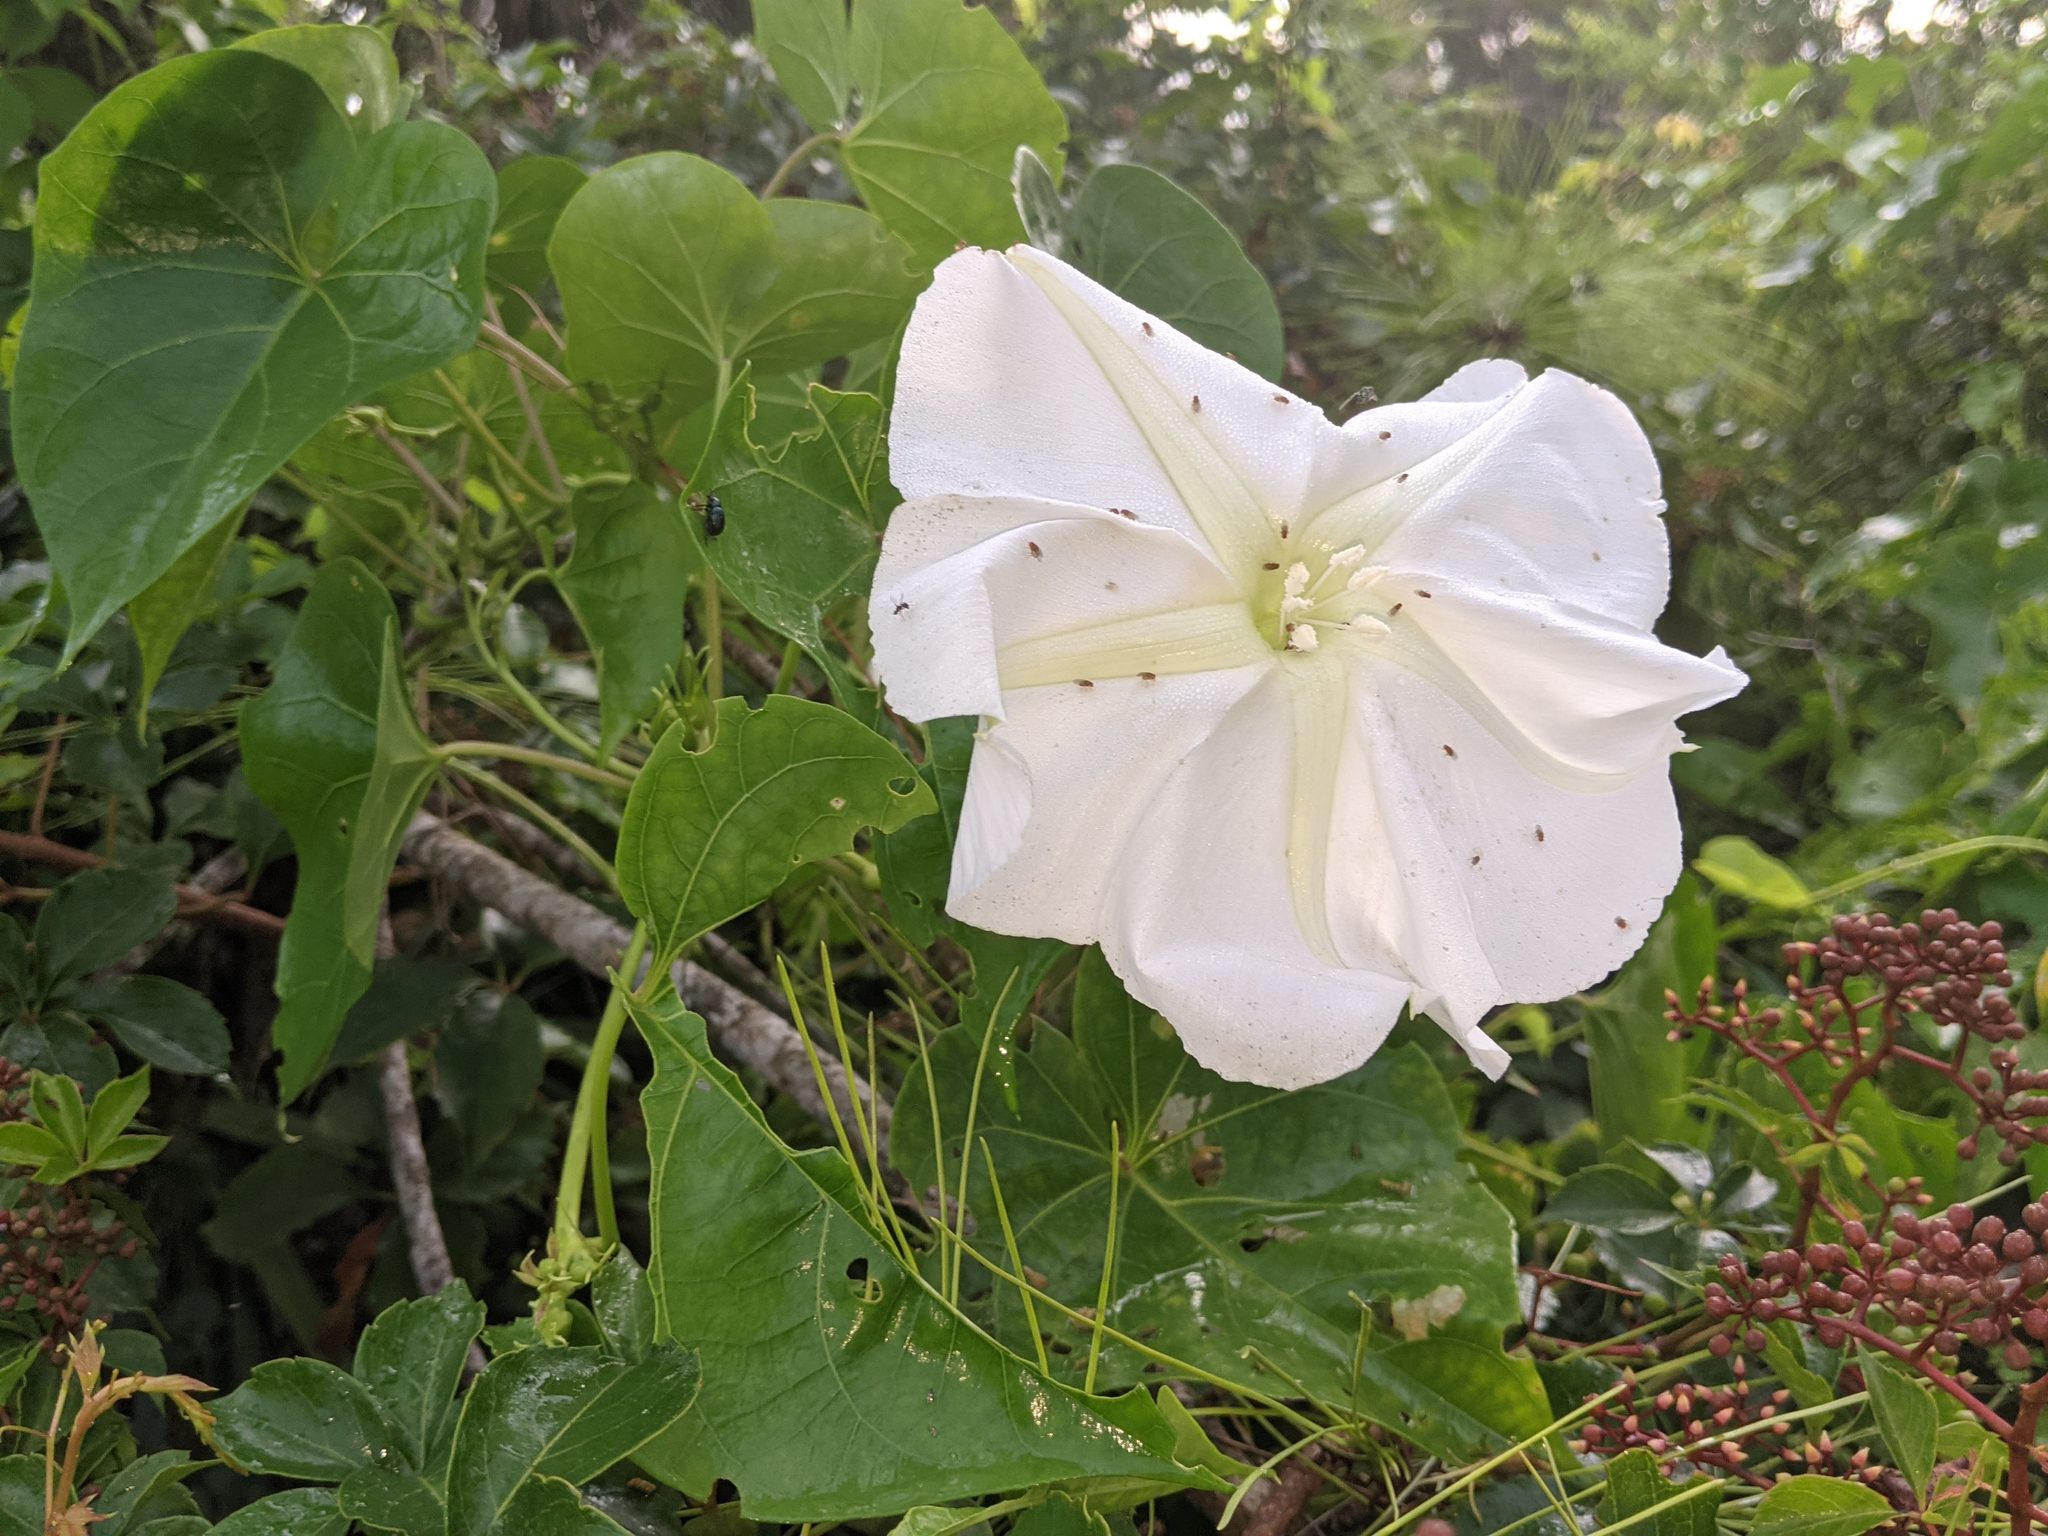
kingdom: Plantae
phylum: Tracheophyta
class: Magnoliopsida
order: Solanales
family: Convolvulaceae
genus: Ipomoea
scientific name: Ipomoea alba
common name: Moonflower
